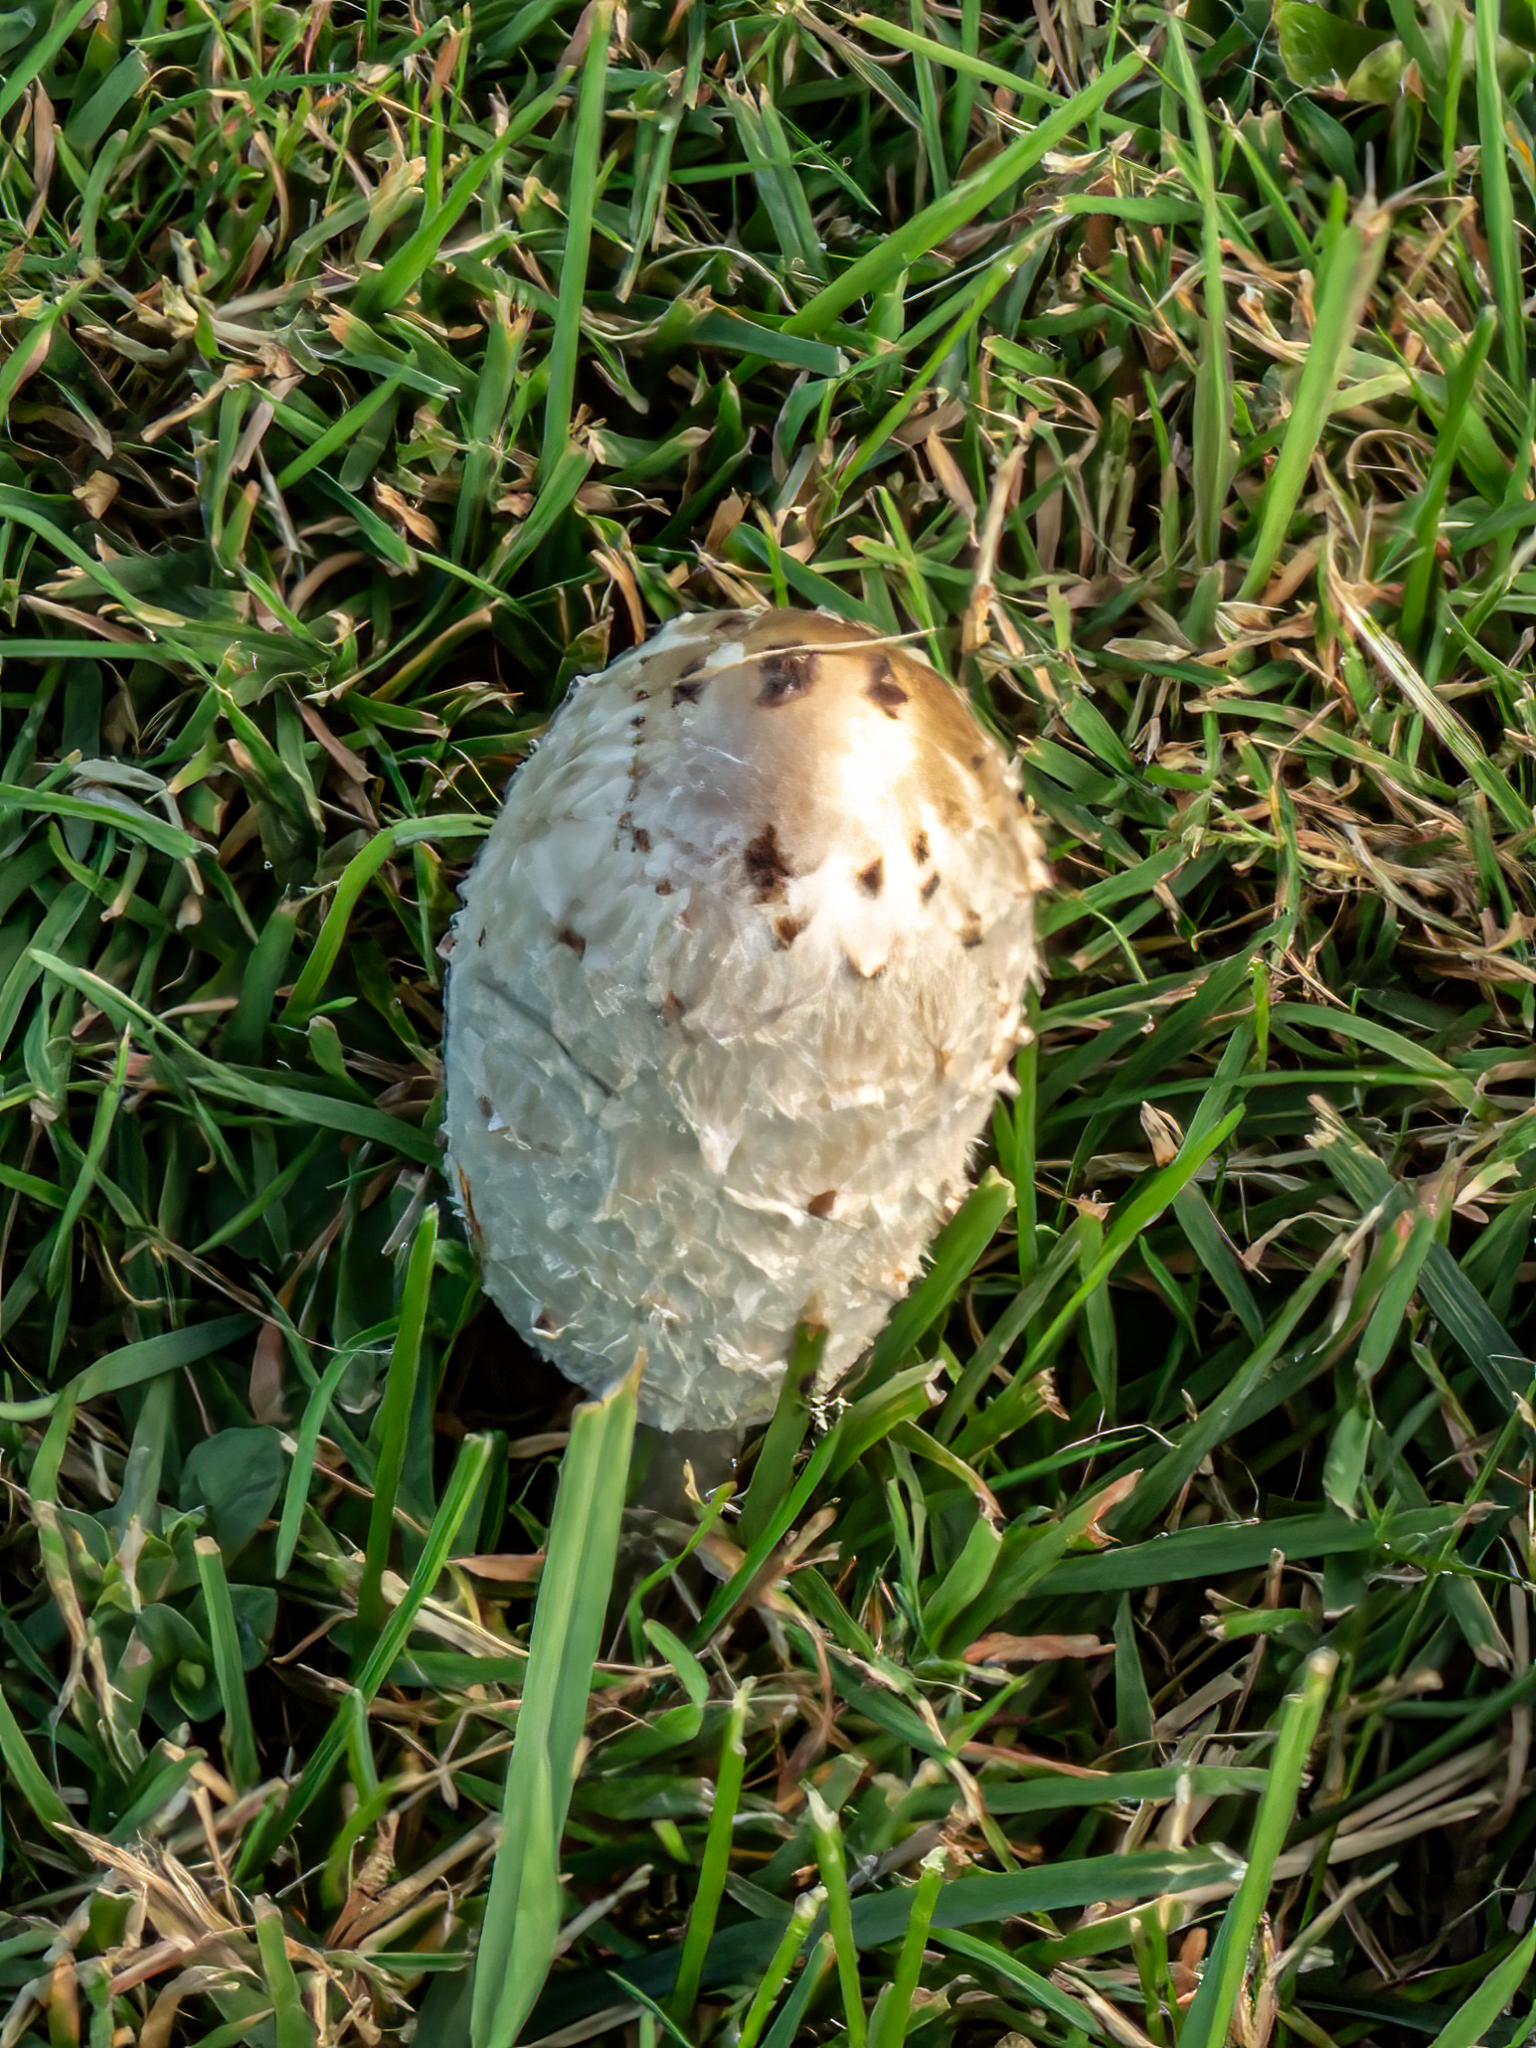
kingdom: Fungi
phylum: Basidiomycota
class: Agaricomycetes
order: Agaricales
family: Agaricaceae
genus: Coprinus
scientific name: Coprinus comatus
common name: Lawyer's wig
